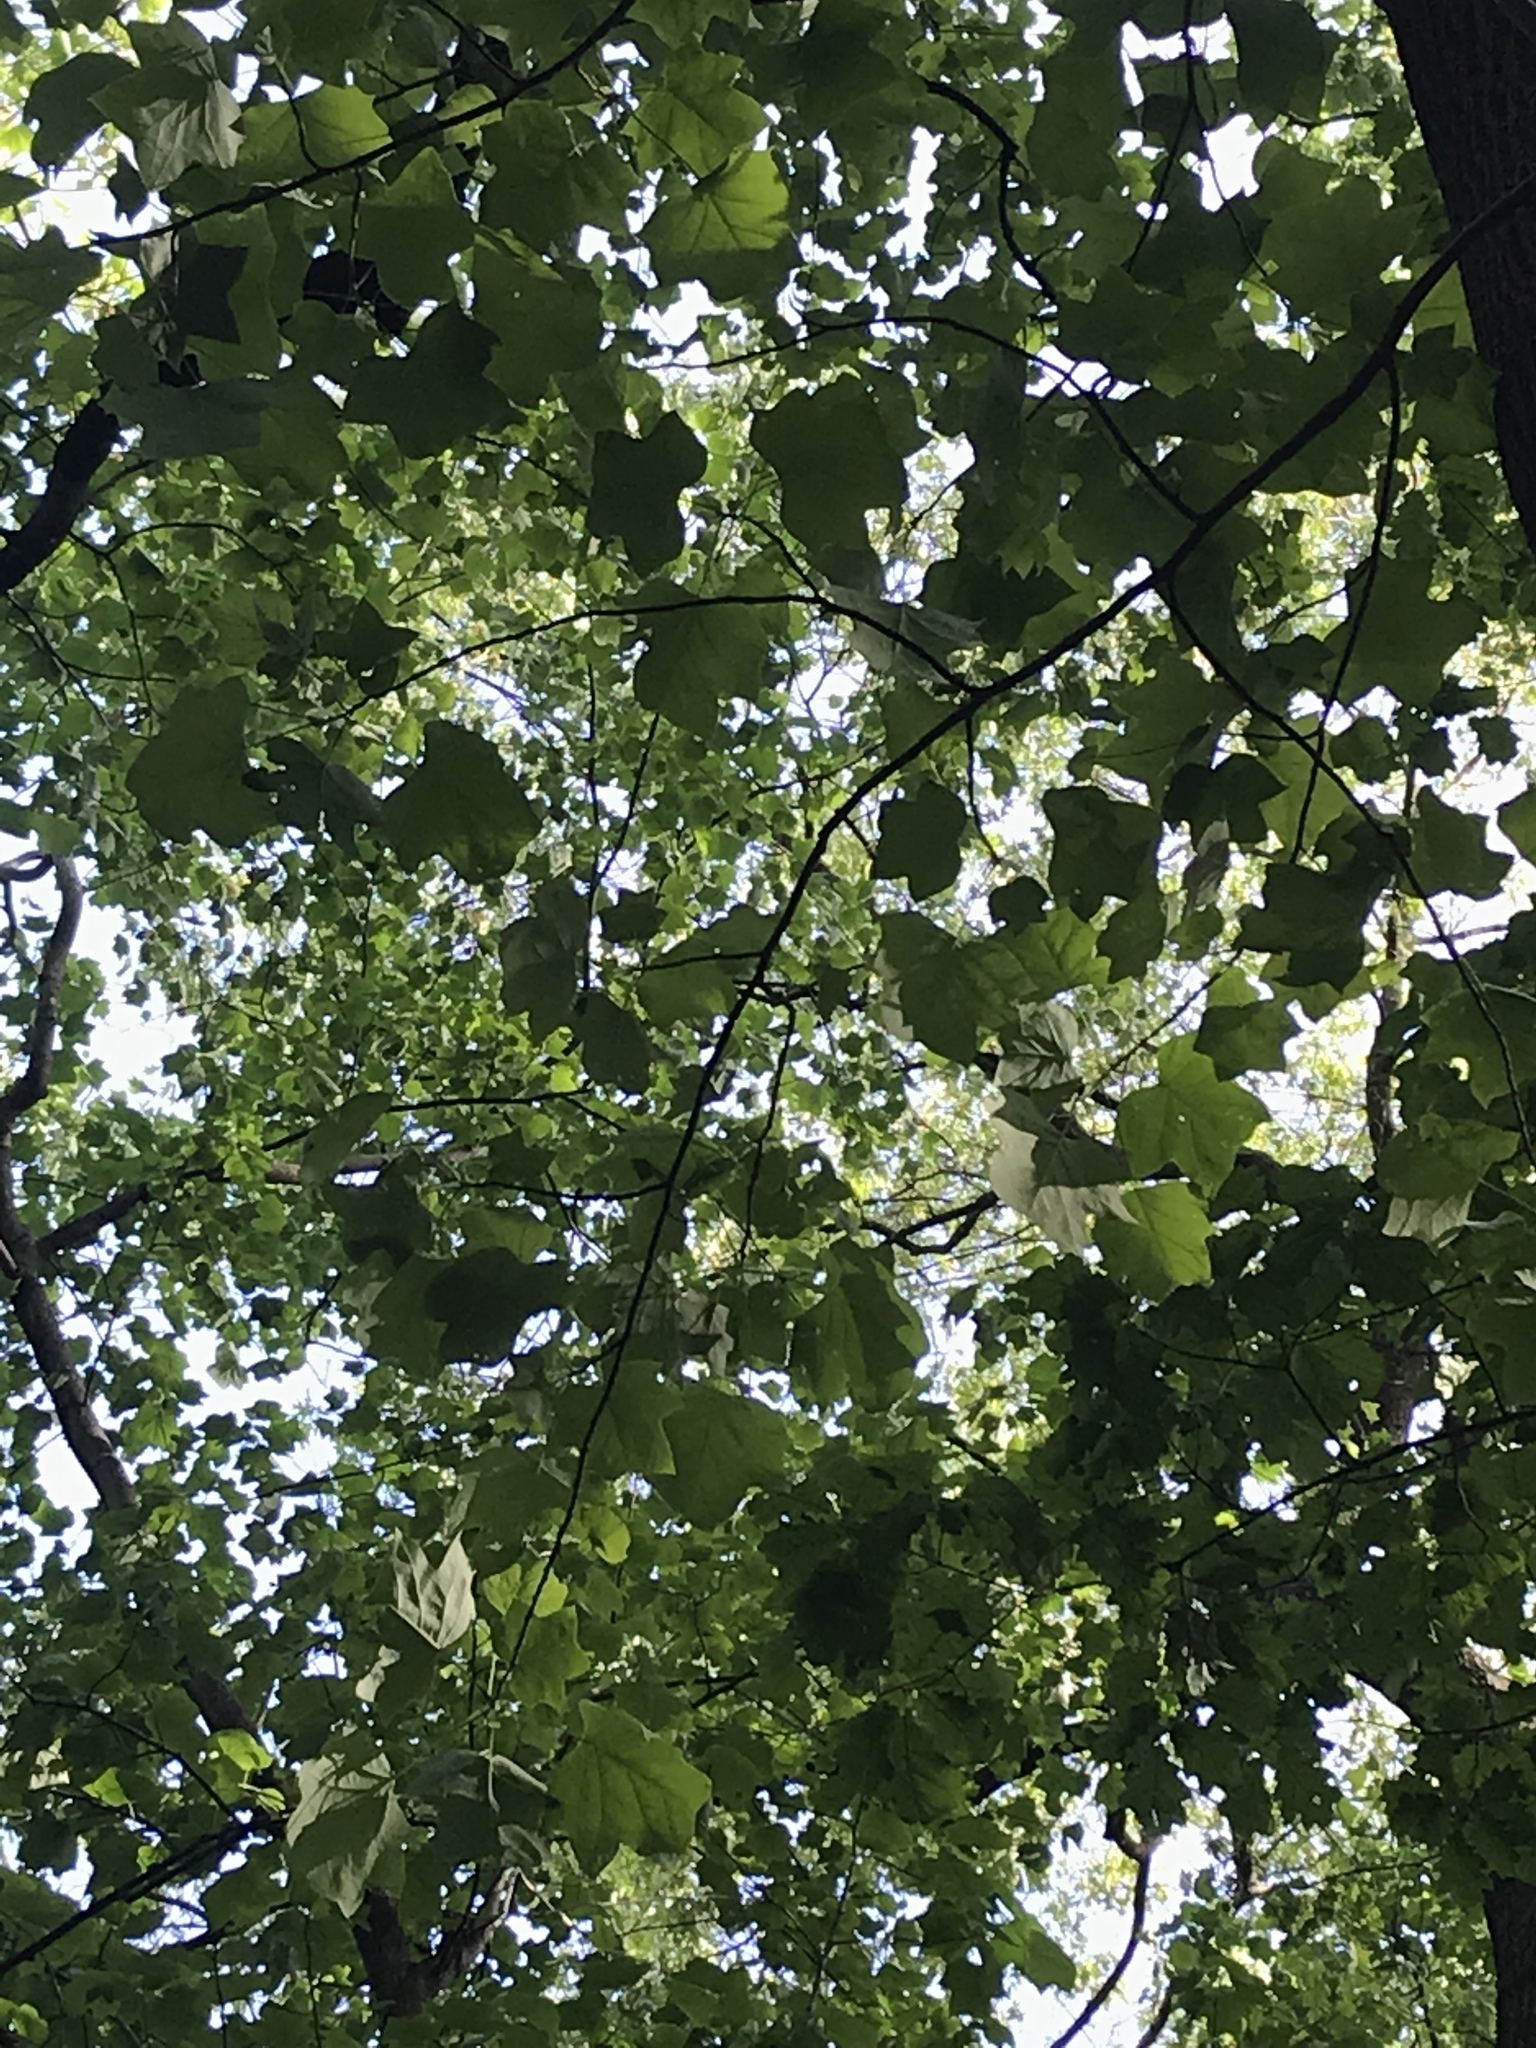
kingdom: Plantae
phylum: Tracheophyta
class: Magnoliopsida
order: Magnoliales
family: Magnoliaceae
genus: Liriodendron
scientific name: Liriodendron tulipifera
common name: Tulip tree
